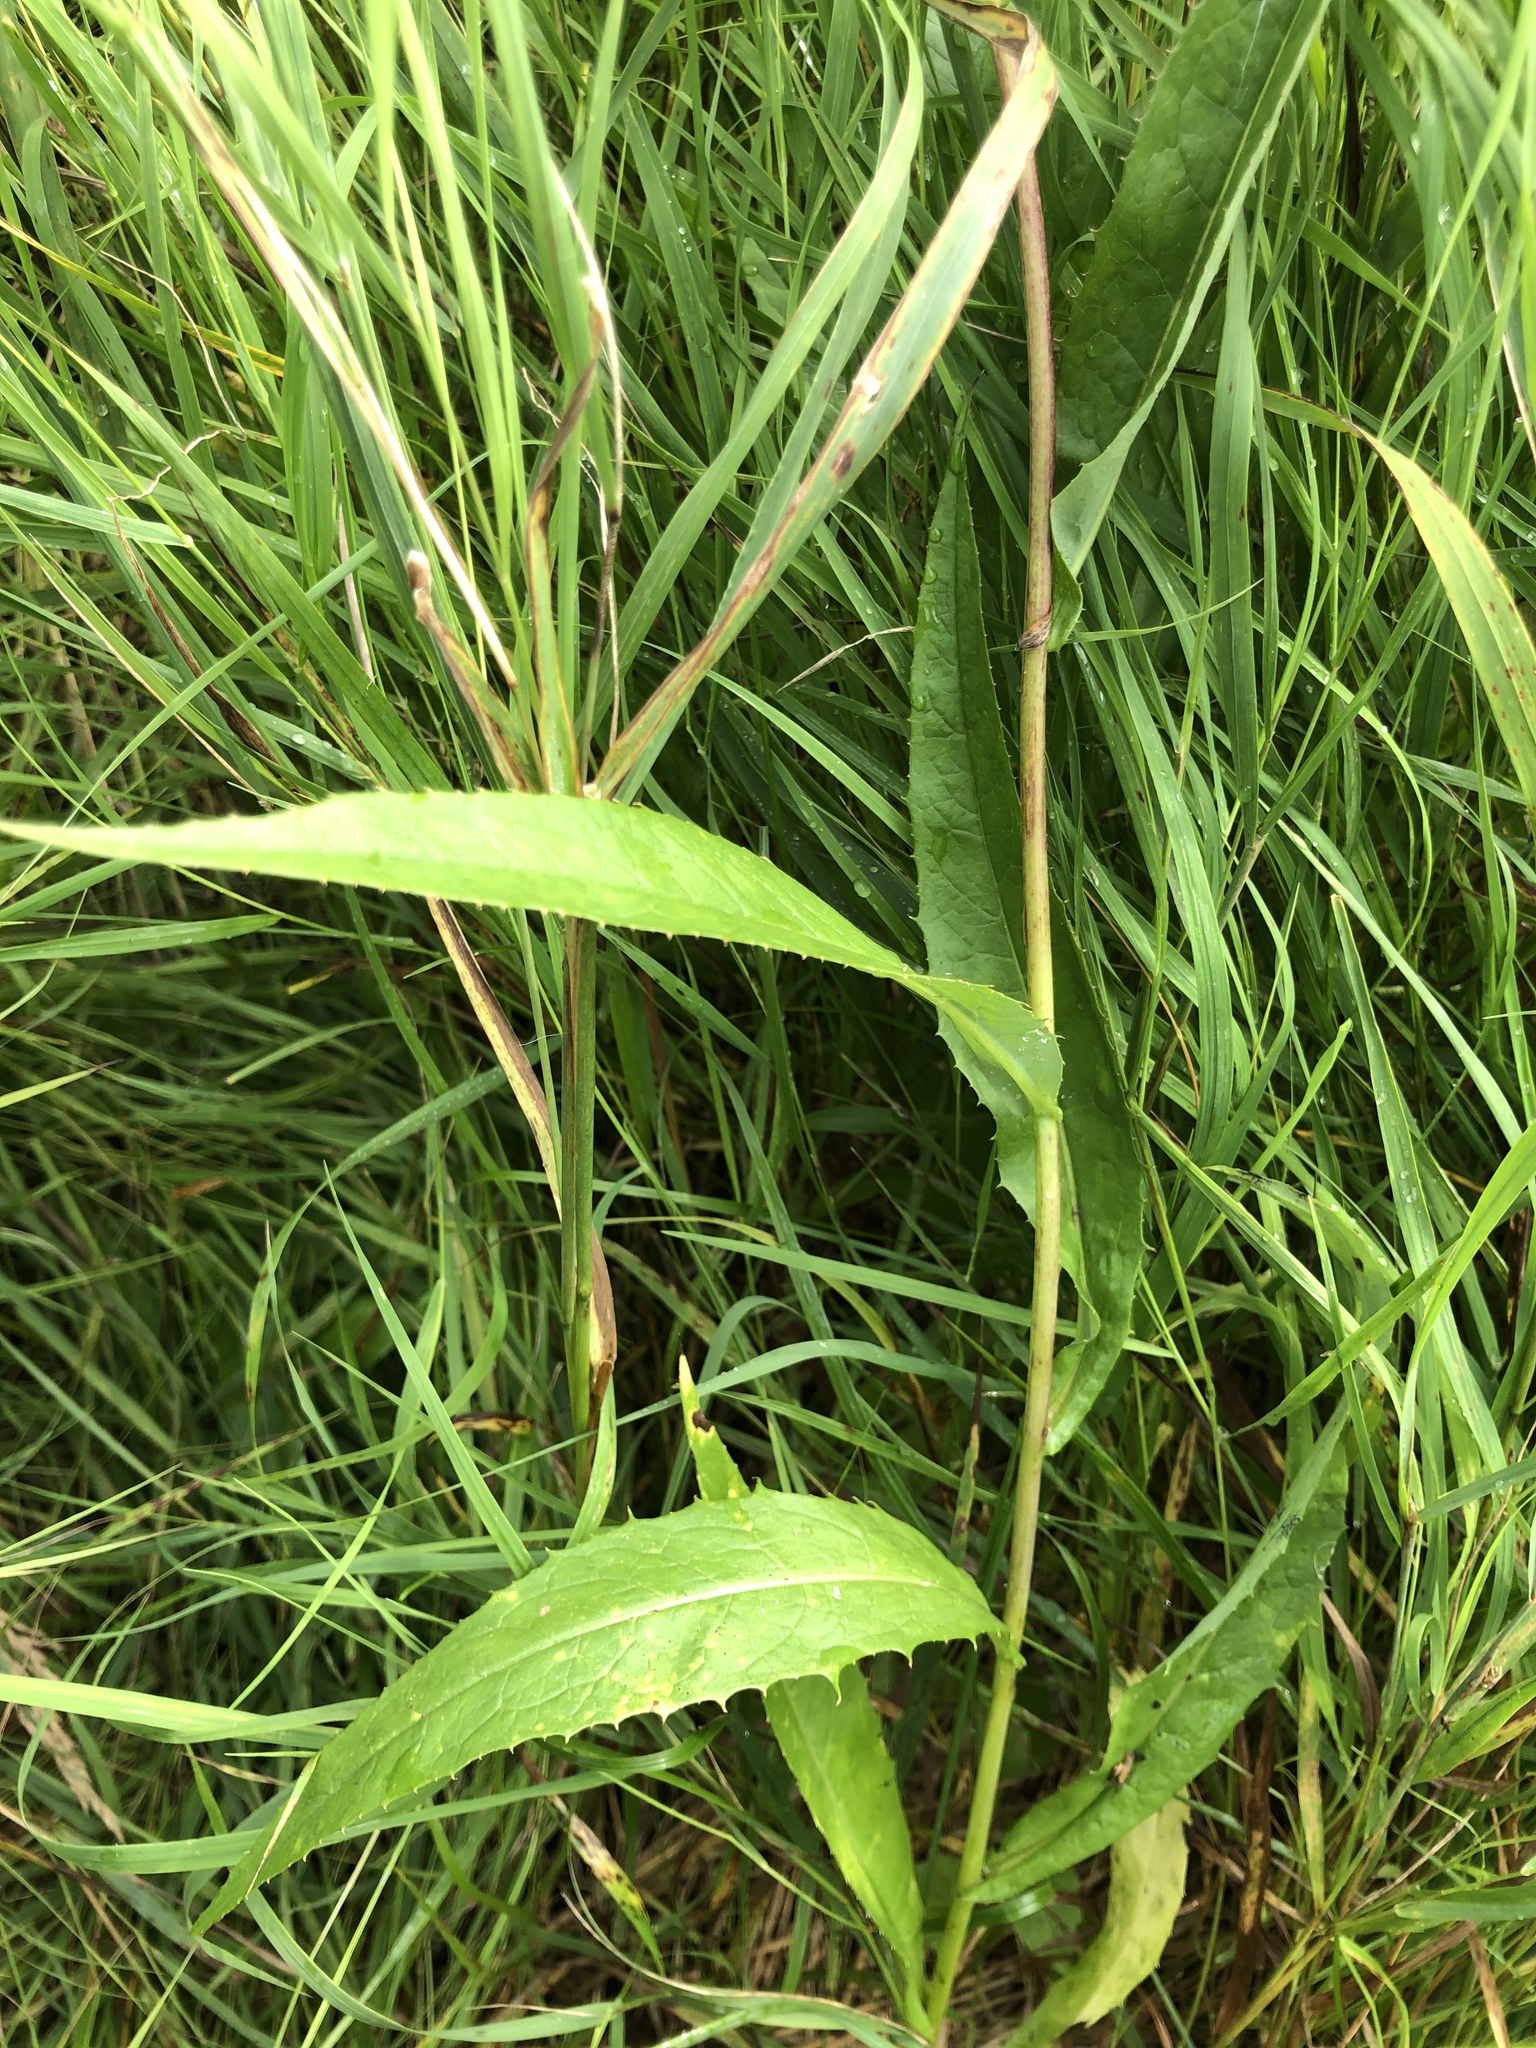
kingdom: Plantae
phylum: Tracheophyta
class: Magnoliopsida
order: Asterales
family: Asteraceae
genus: Lactuca
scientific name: Lactuca sibirica
